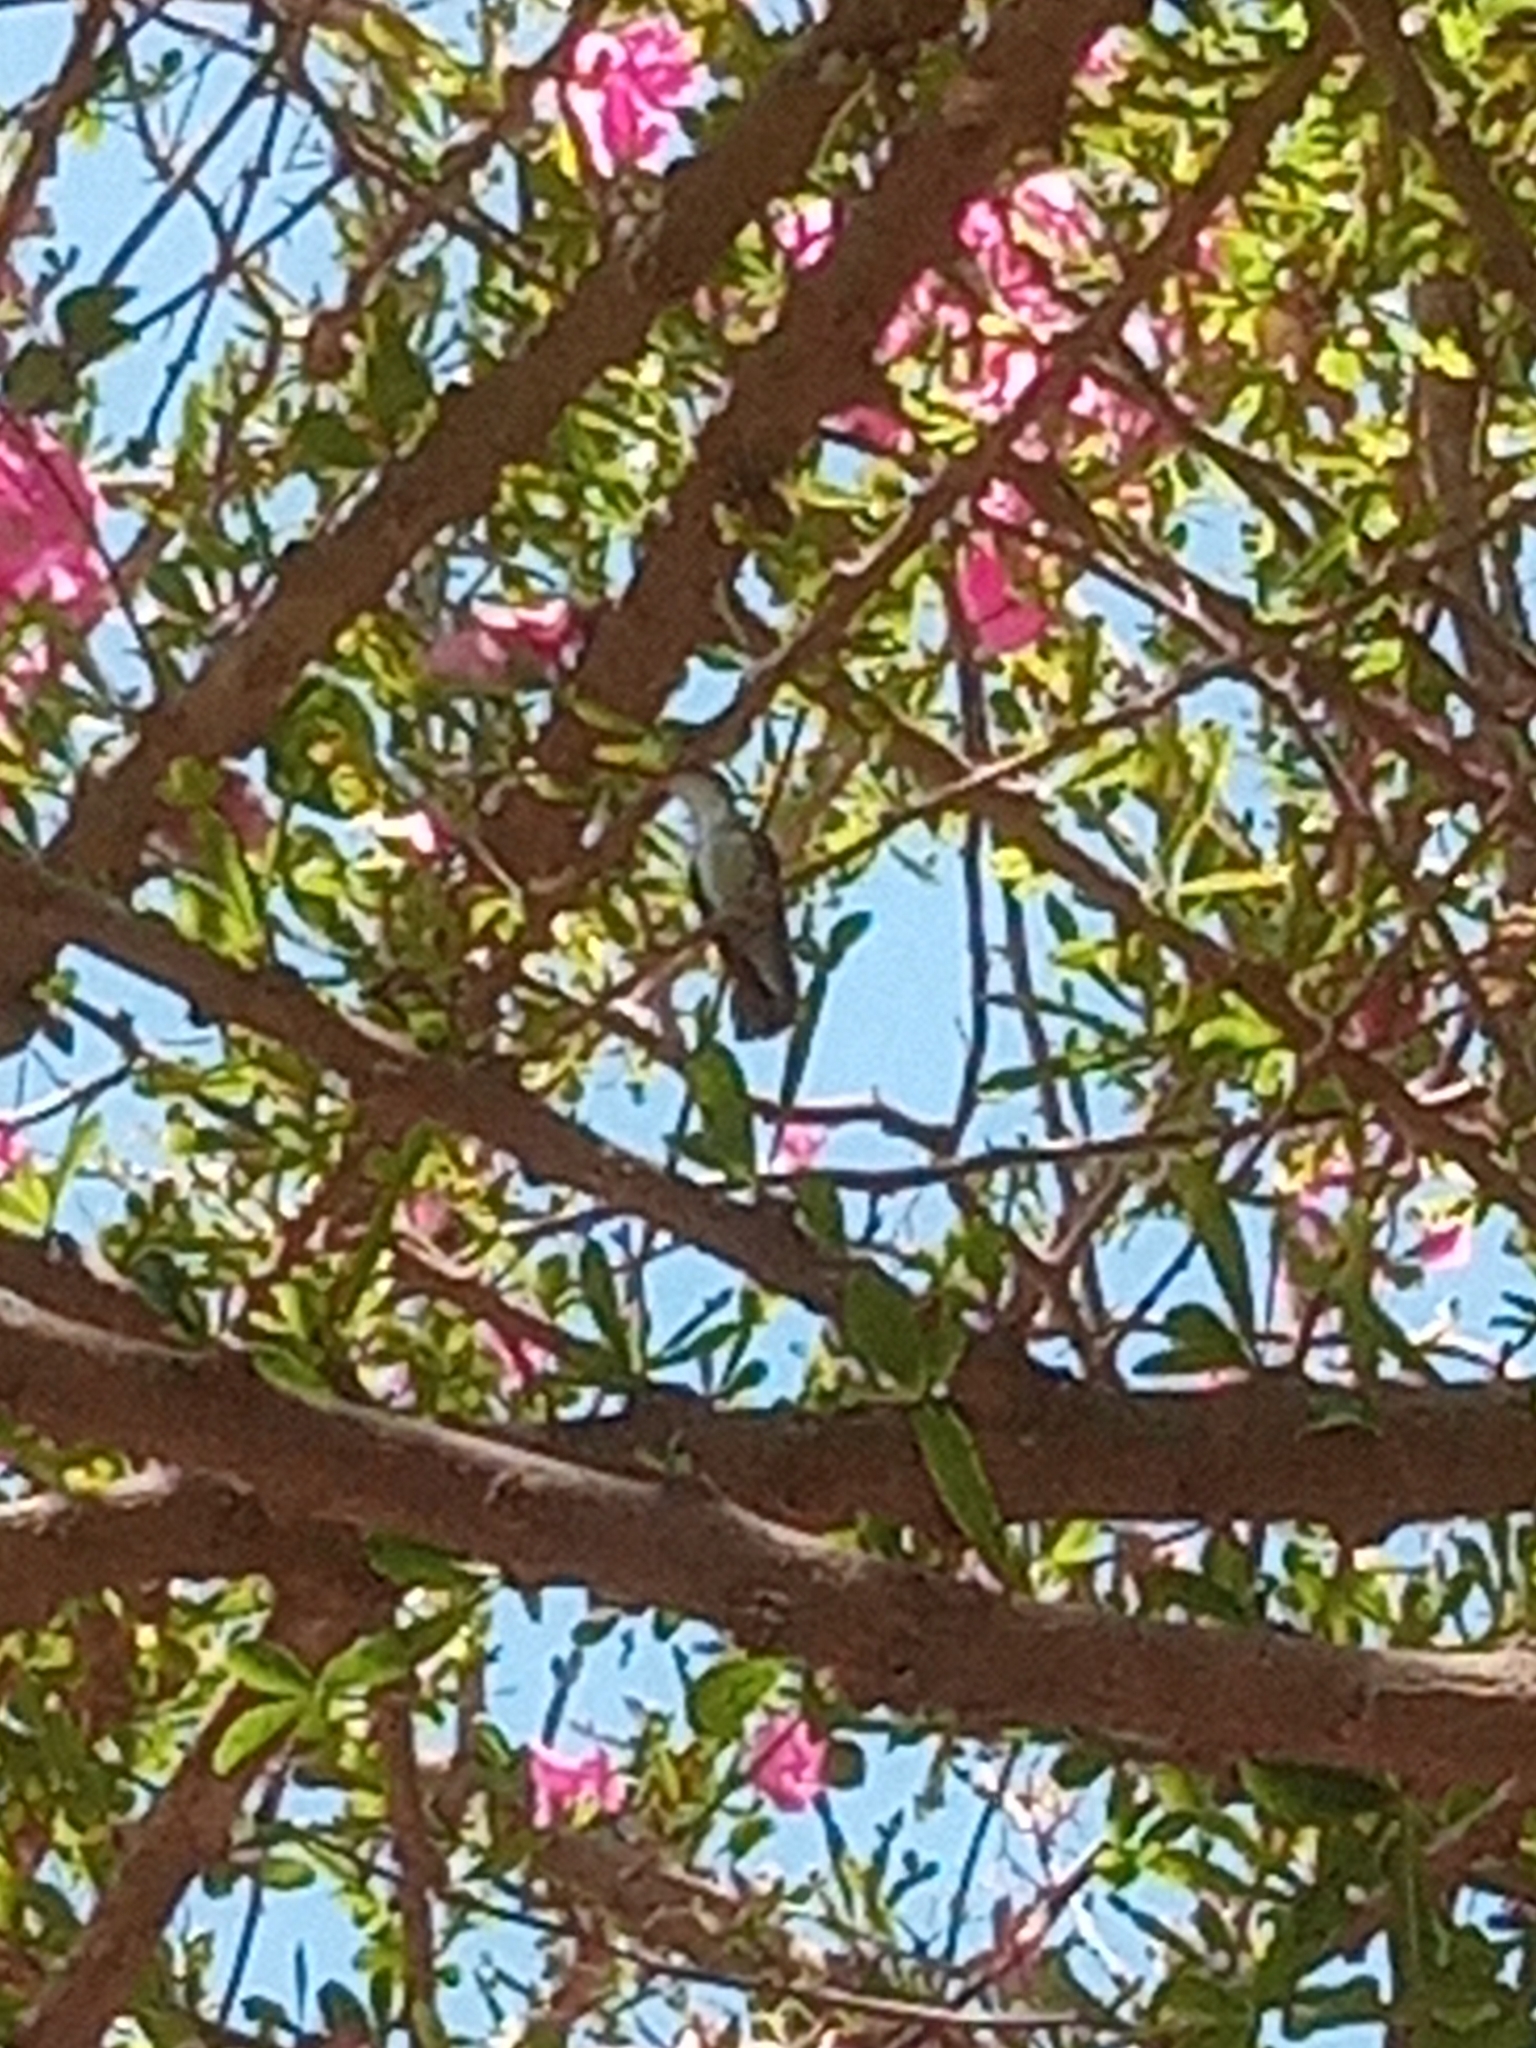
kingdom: Animalia
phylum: Chordata
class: Aves
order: Apodiformes
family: Trochilidae
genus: Leucolia
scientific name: Leucolia violiceps
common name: Violet-crowned hummingbird
